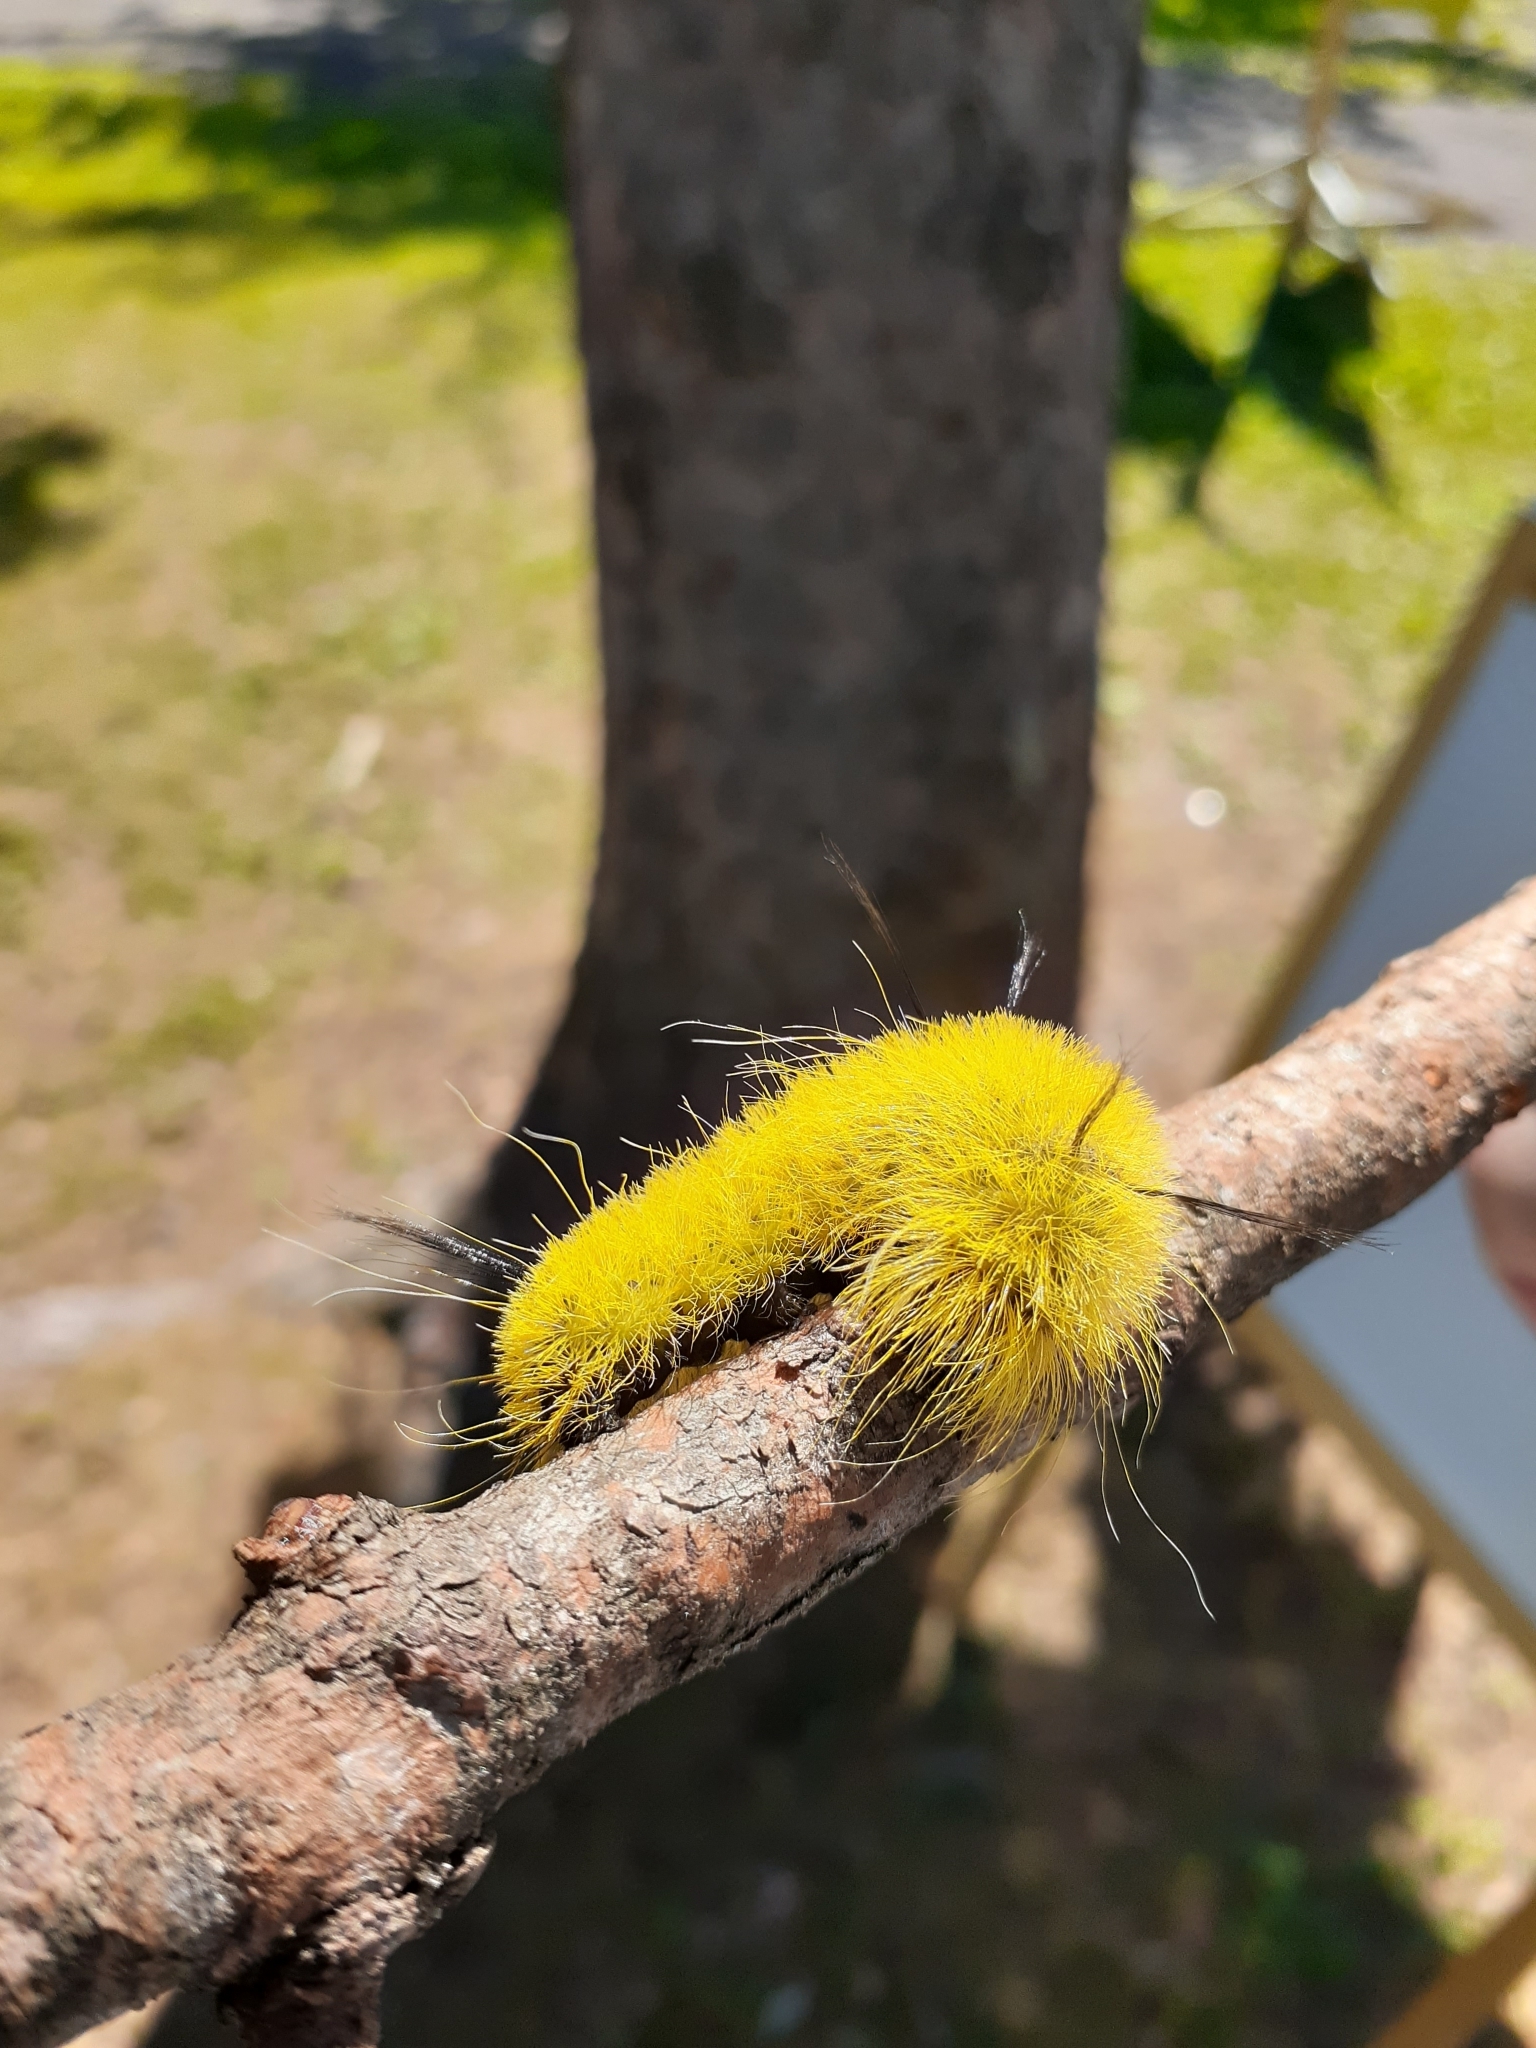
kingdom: Animalia
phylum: Arthropoda
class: Insecta
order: Lepidoptera
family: Noctuidae
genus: Acronicta
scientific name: Acronicta americana
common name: American dagger
